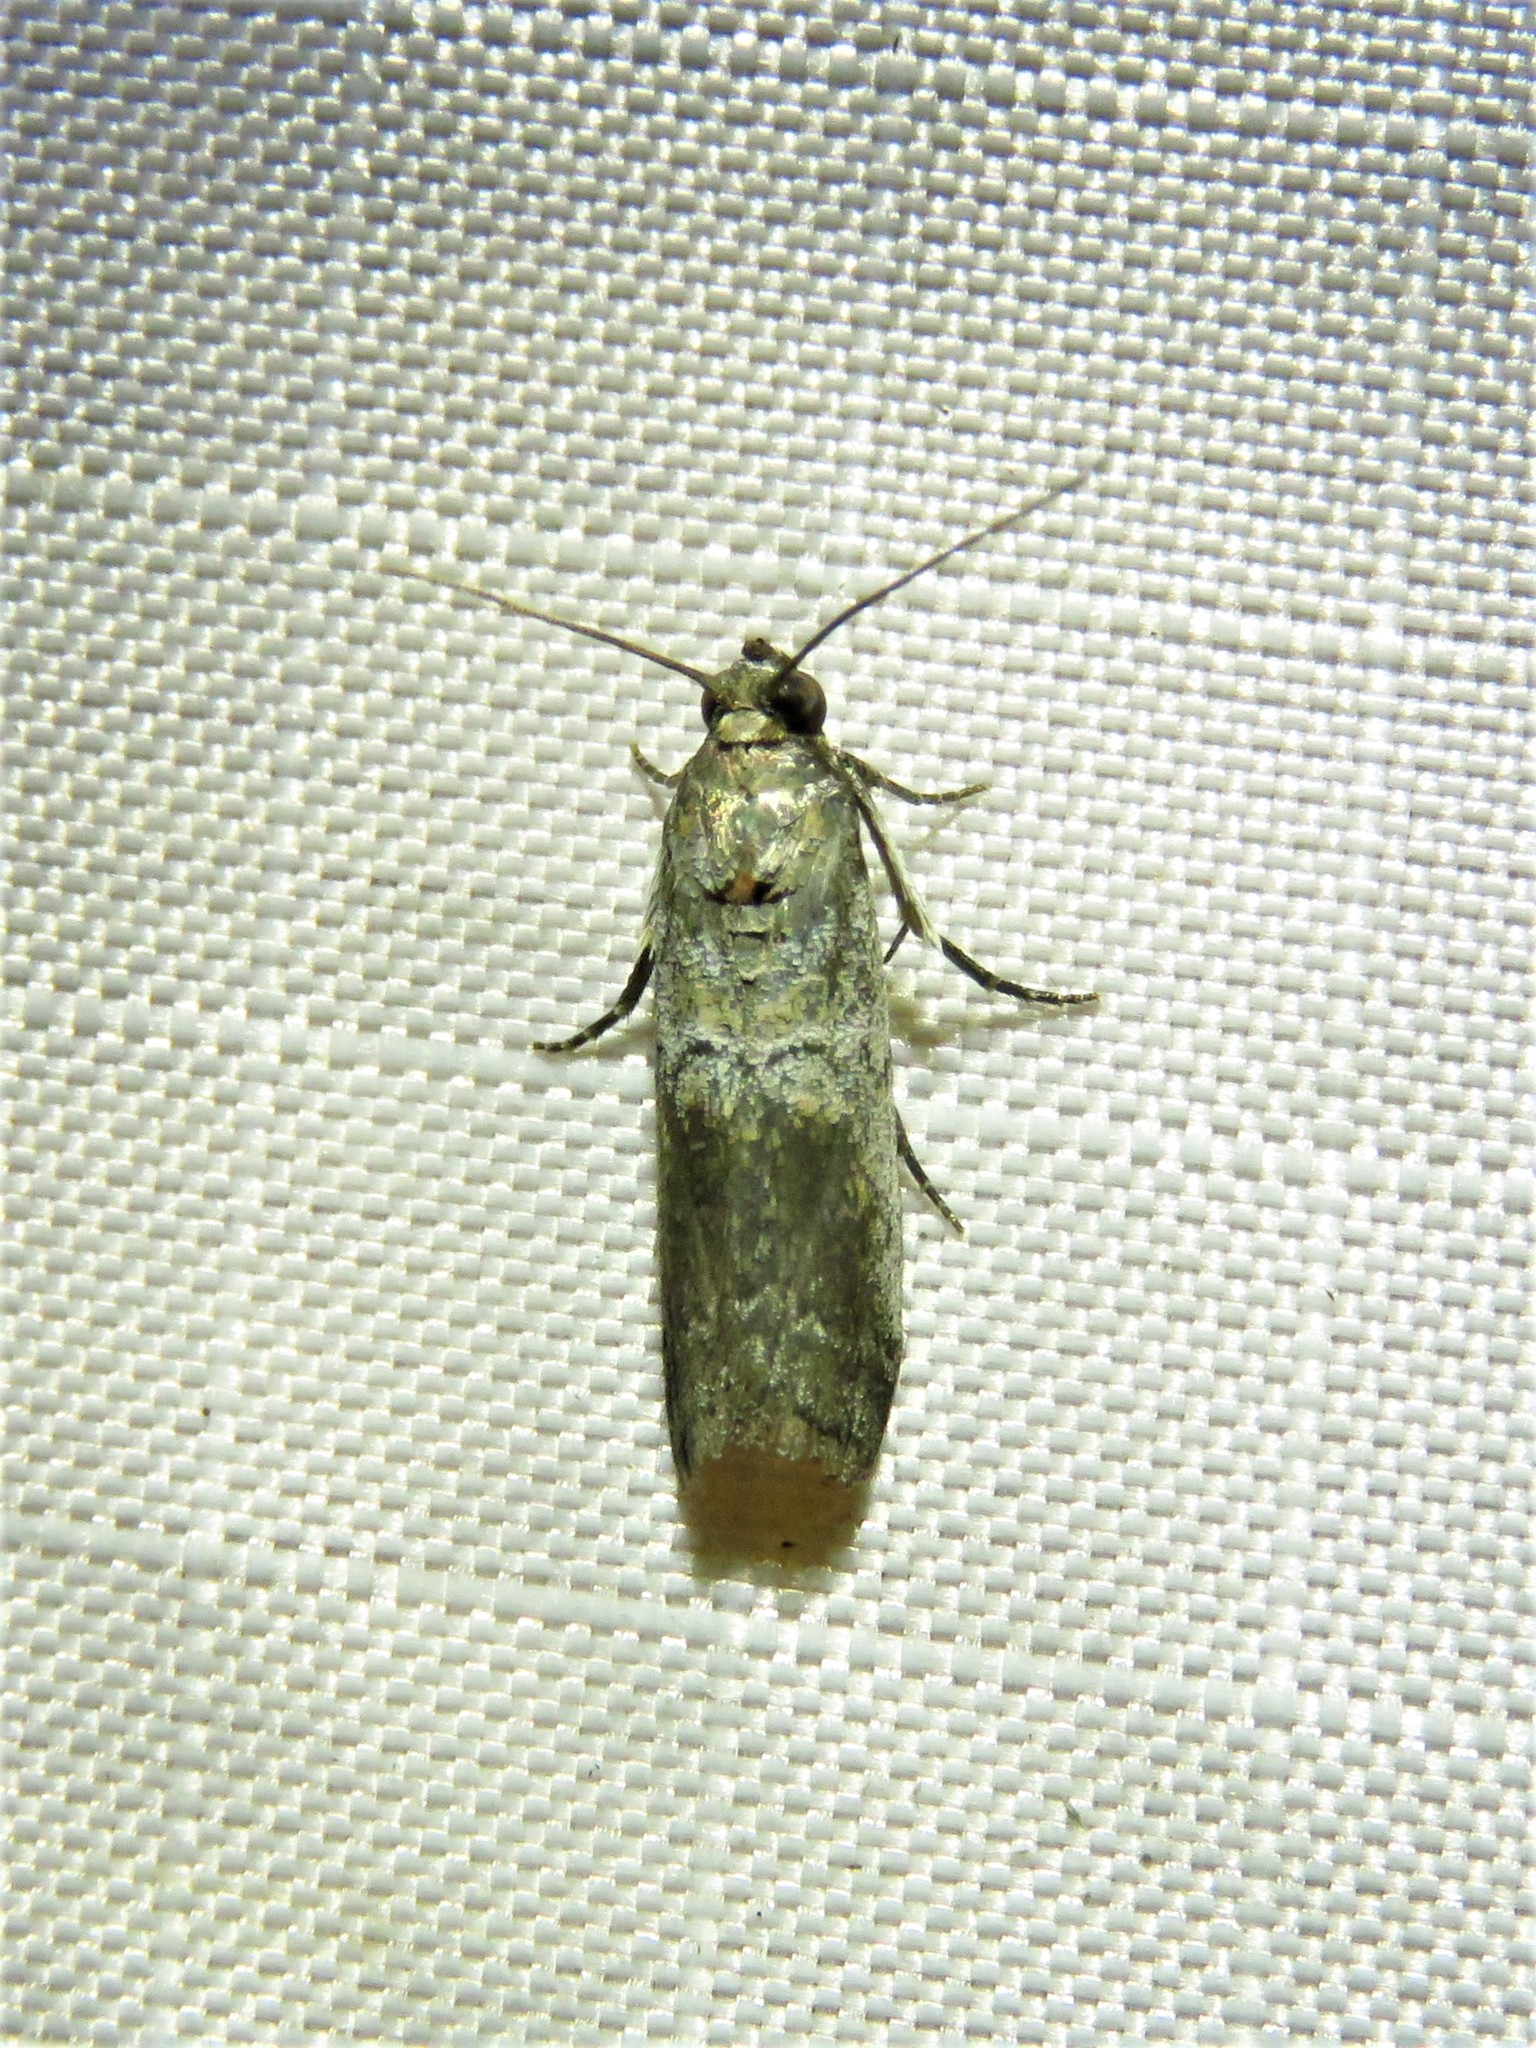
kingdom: Animalia
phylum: Arthropoda
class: Insecta
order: Lepidoptera
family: Pyralidae
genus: Chararica
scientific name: Chararica hystriculella
